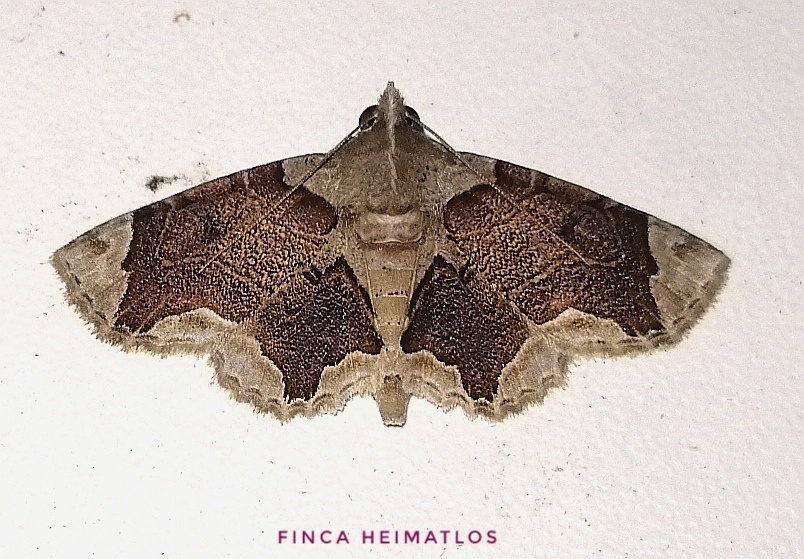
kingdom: Animalia
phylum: Arthropoda
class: Insecta
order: Lepidoptera
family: Erebidae
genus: Dolichosomastis
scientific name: Dolichosomastis bicolorata
